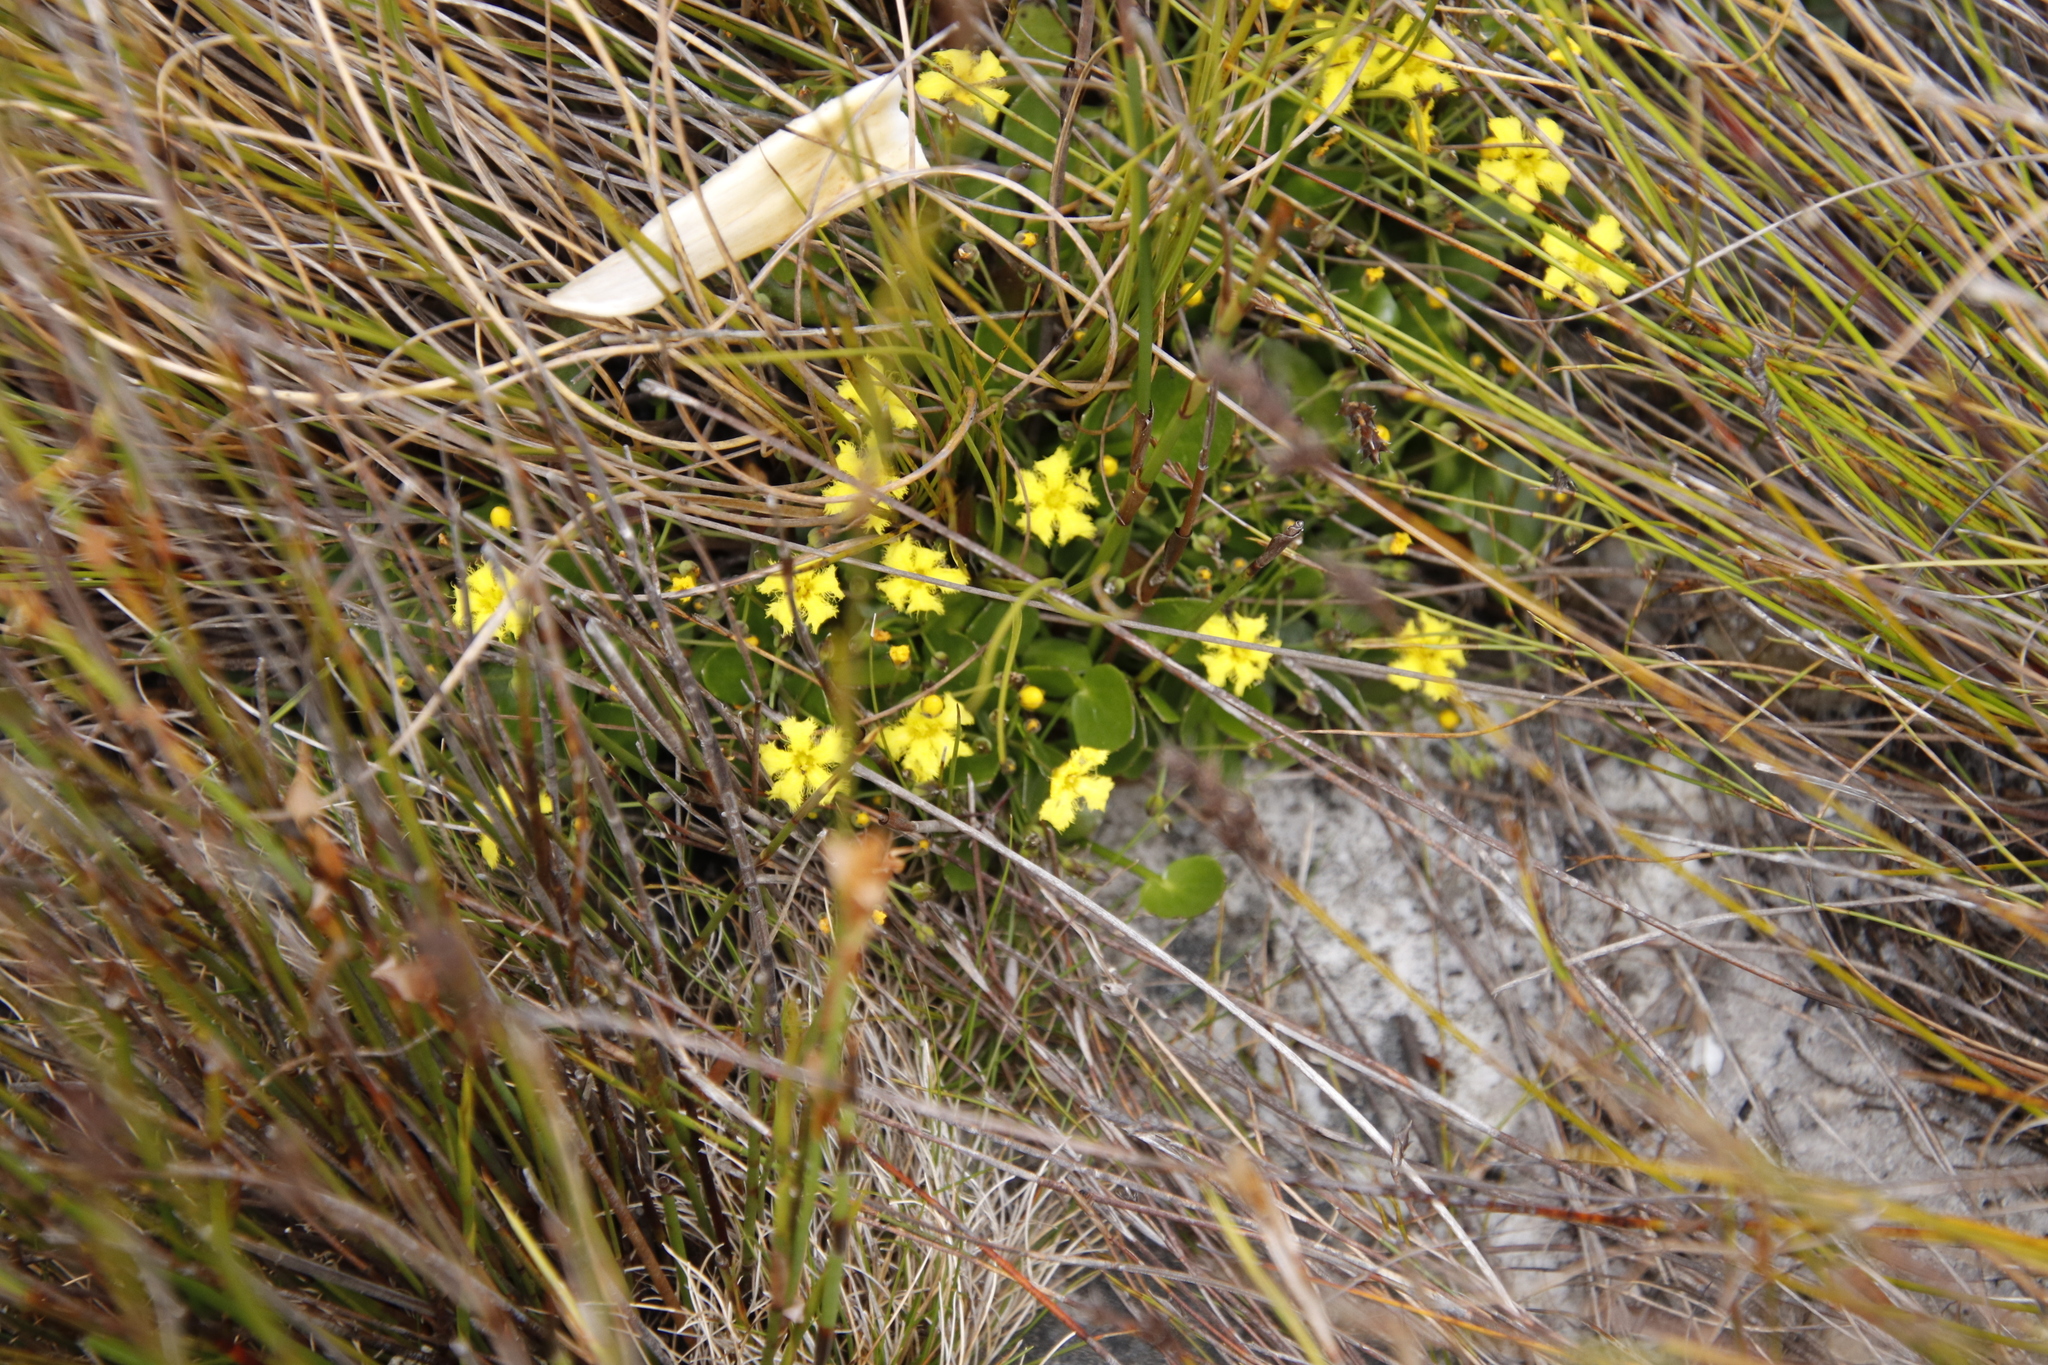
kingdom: Plantae
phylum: Tracheophyta
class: Magnoliopsida
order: Asterales
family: Menyanthaceae
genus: Villarsia
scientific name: Villarsia manningiana
